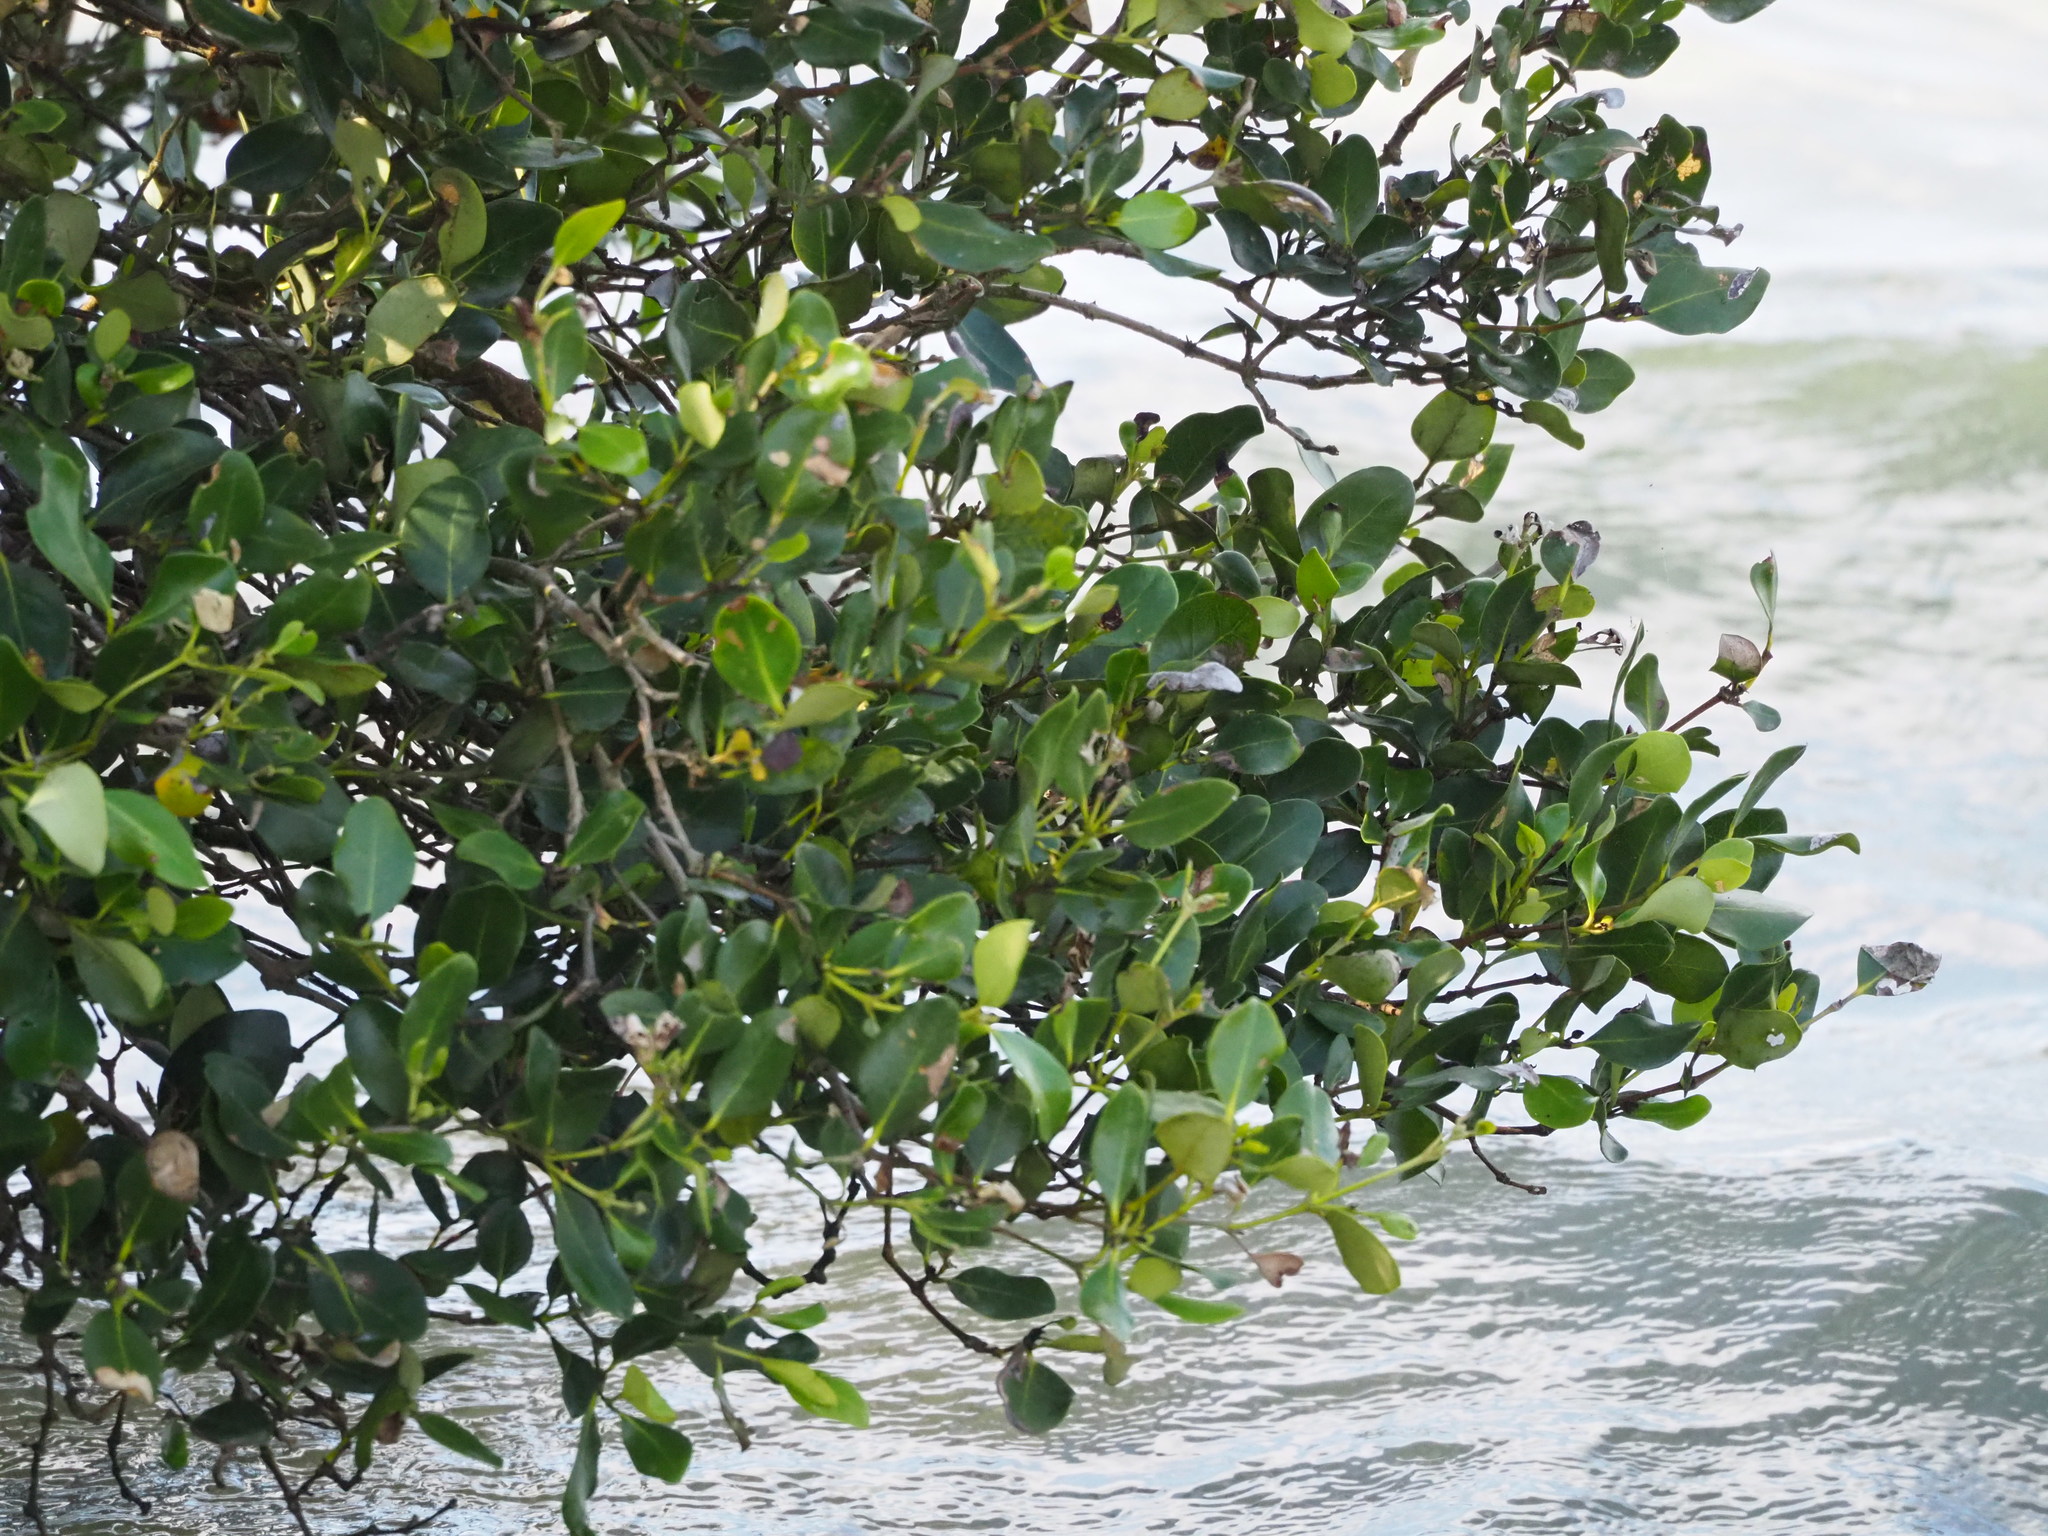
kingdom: Plantae
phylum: Tracheophyta
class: Magnoliopsida
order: Lamiales
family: Acanthaceae
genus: Avicennia
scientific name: Avicennia marina
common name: Gray mangrove
